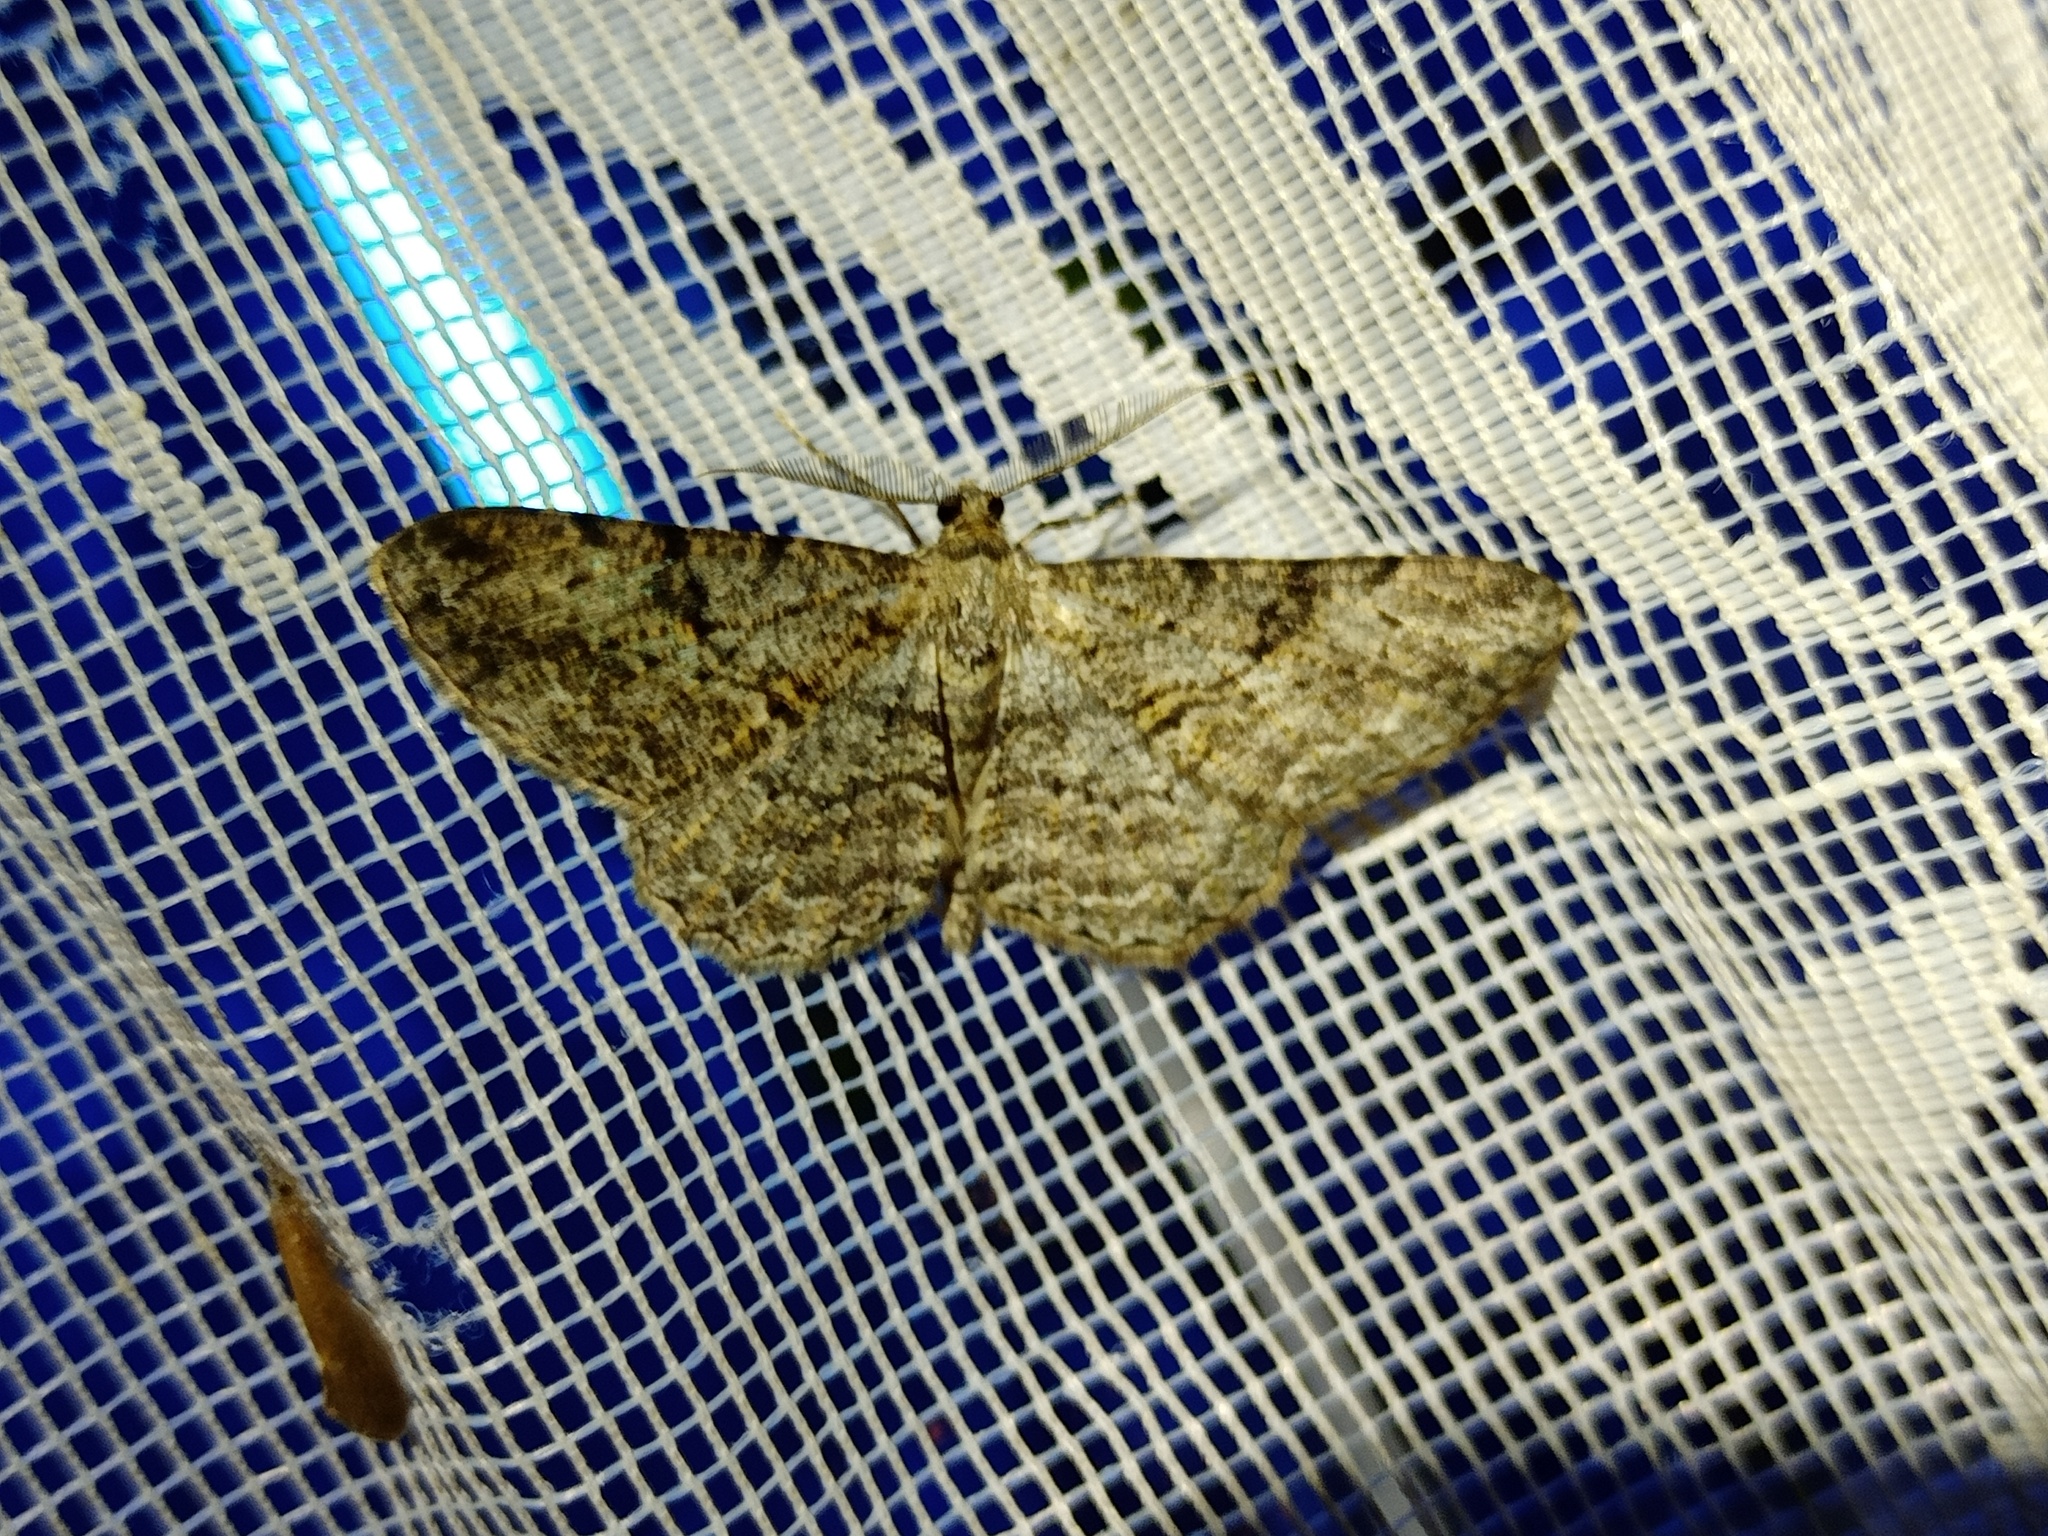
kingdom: Animalia
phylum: Arthropoda
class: Insecta
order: Lepidoptera
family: Geometridae
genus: Peribatodes
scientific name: Peribatodes rhomboidaria
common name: Willow beauty
